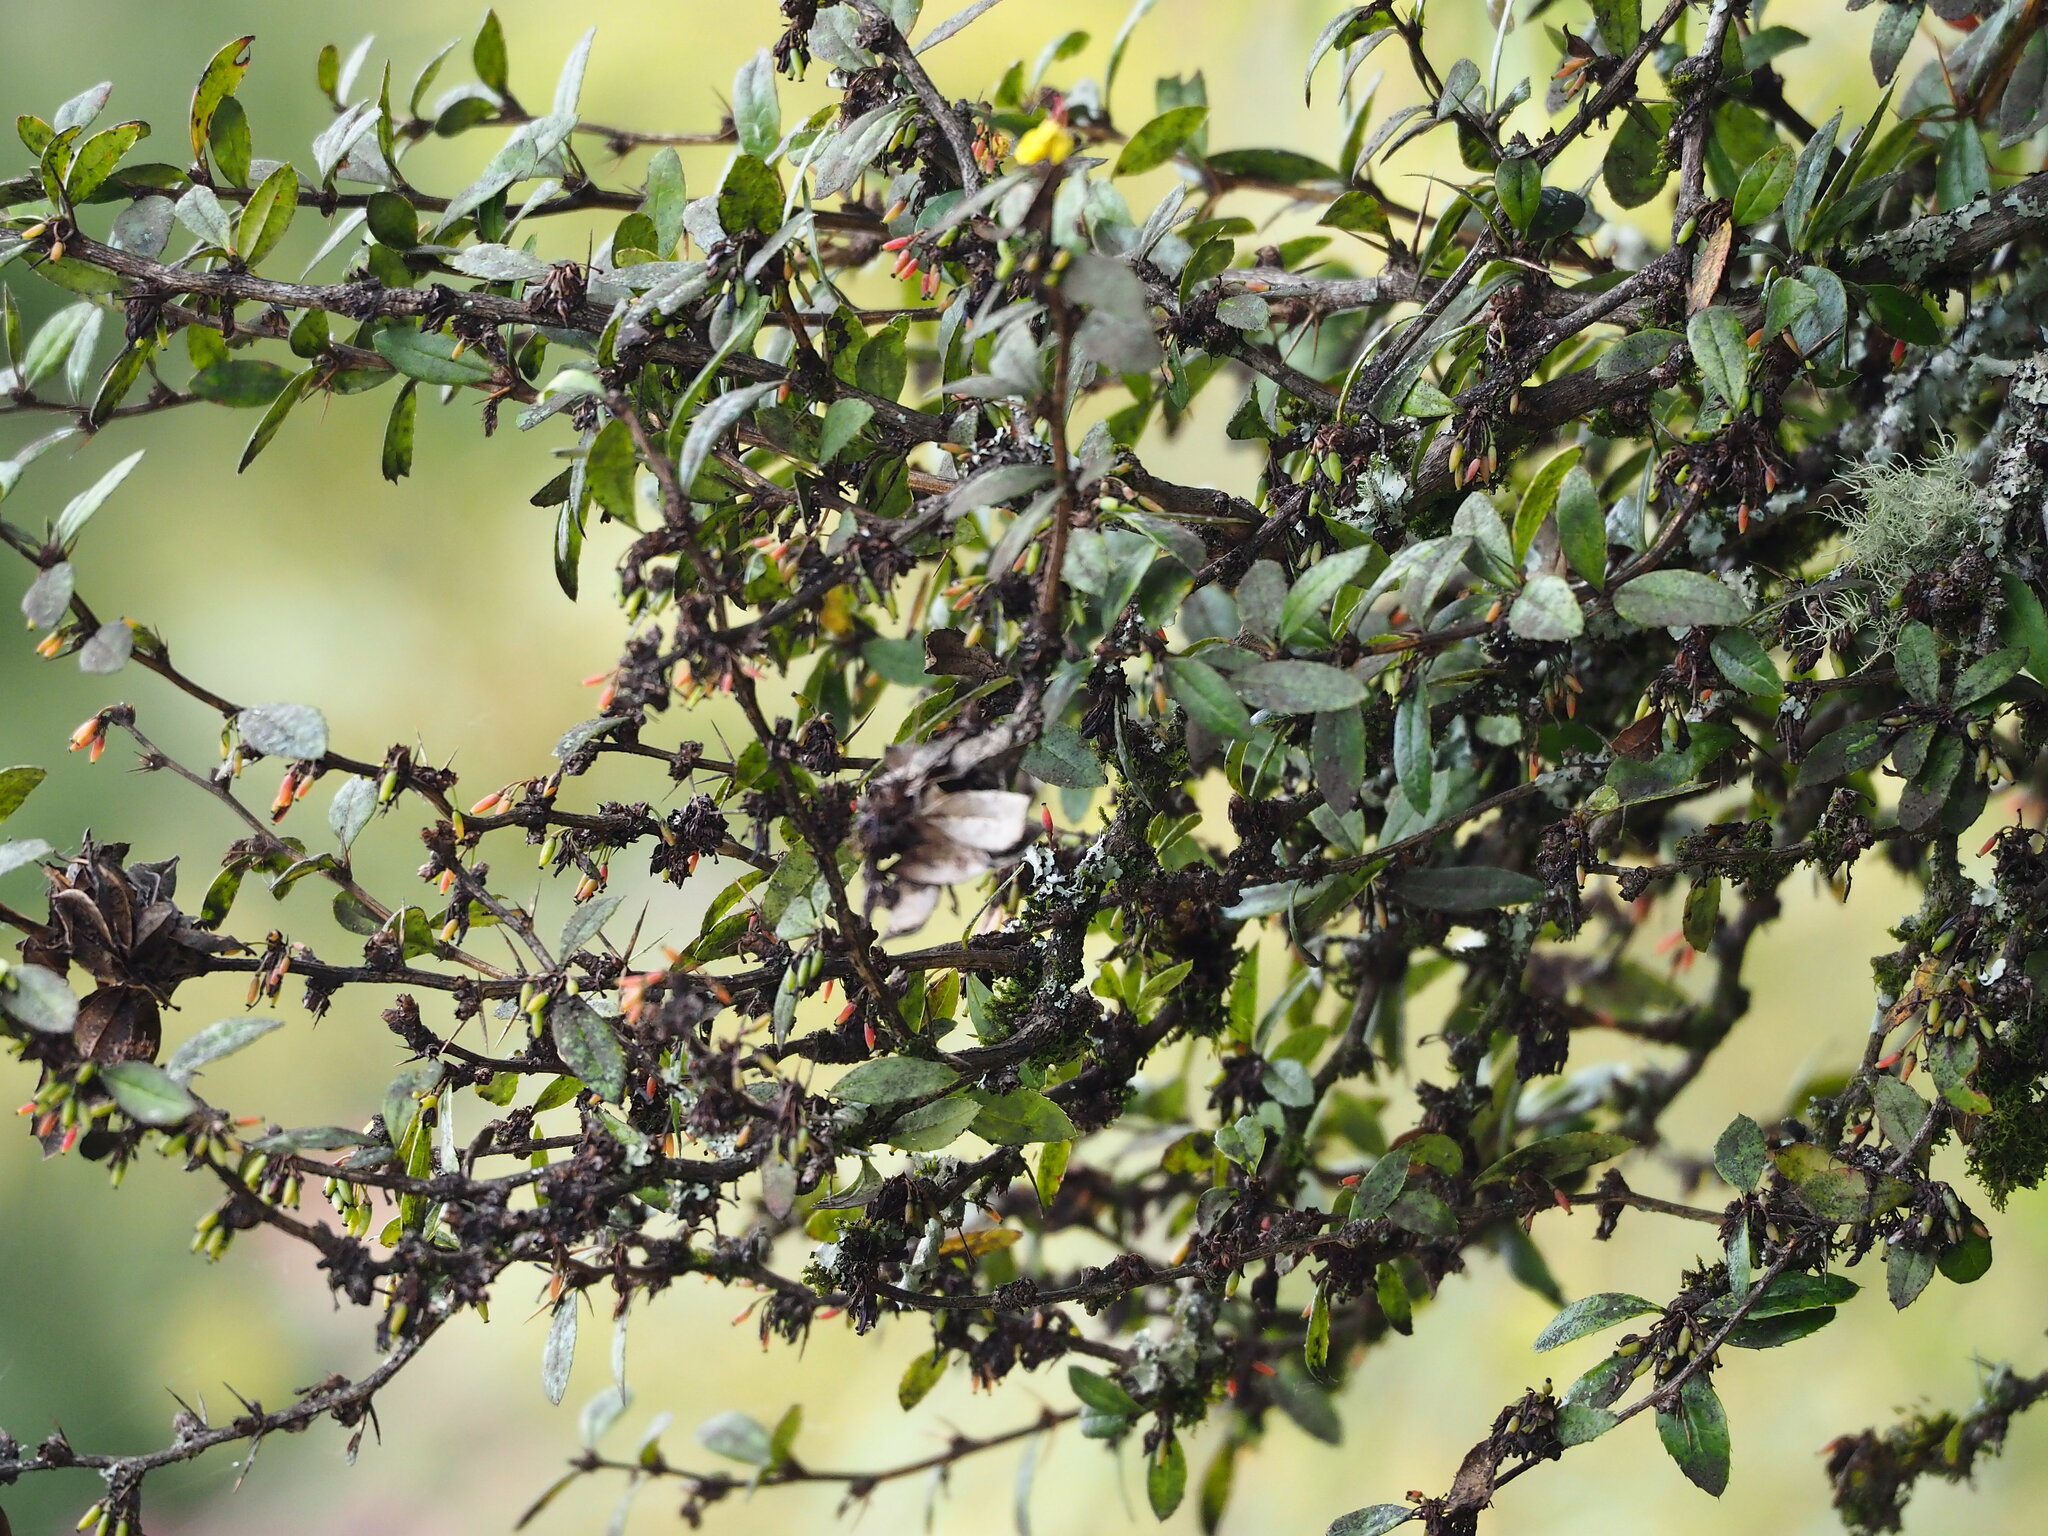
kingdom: Plantae
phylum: Tracheophyta
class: Magnoliopsida
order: Ranunculales
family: Berberidaceae
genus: Berberis
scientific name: Berberis kawakamii
